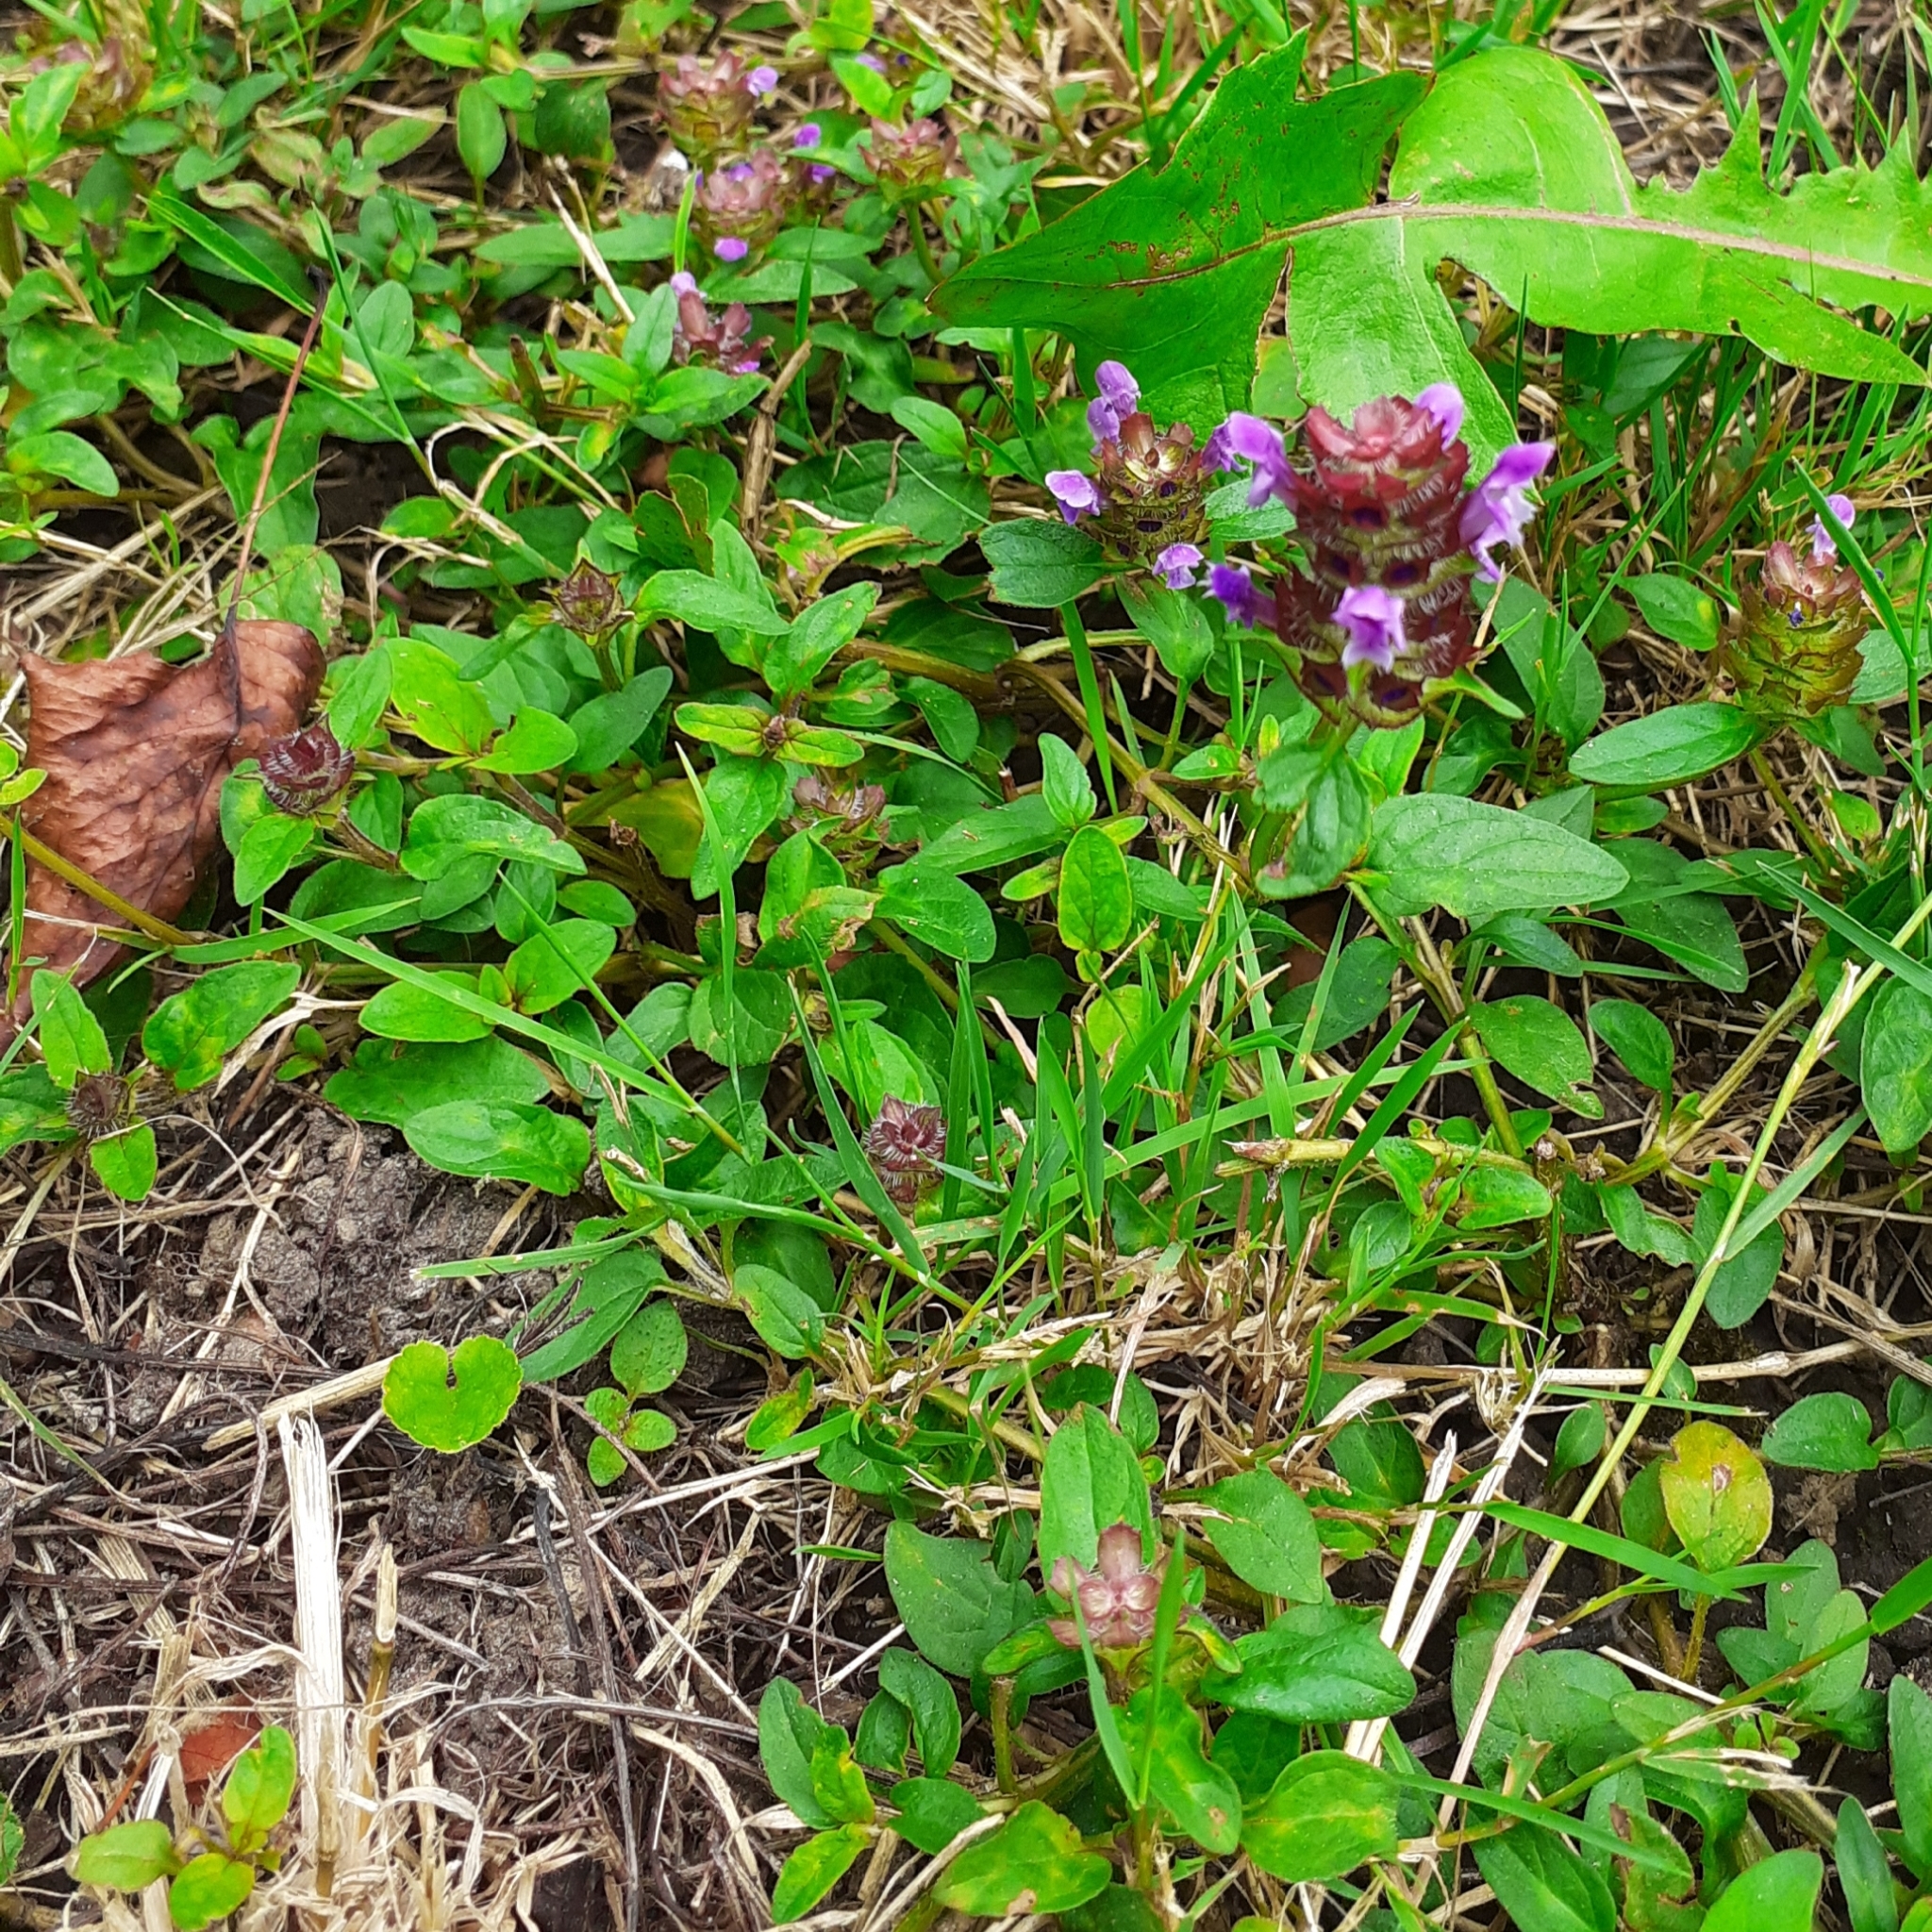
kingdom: Plantae
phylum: Tracheophyta
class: Magnoliopsida
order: Lamiales
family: Lamiaceae
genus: Prunella
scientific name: Prunella vulgaris
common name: Heal-all
